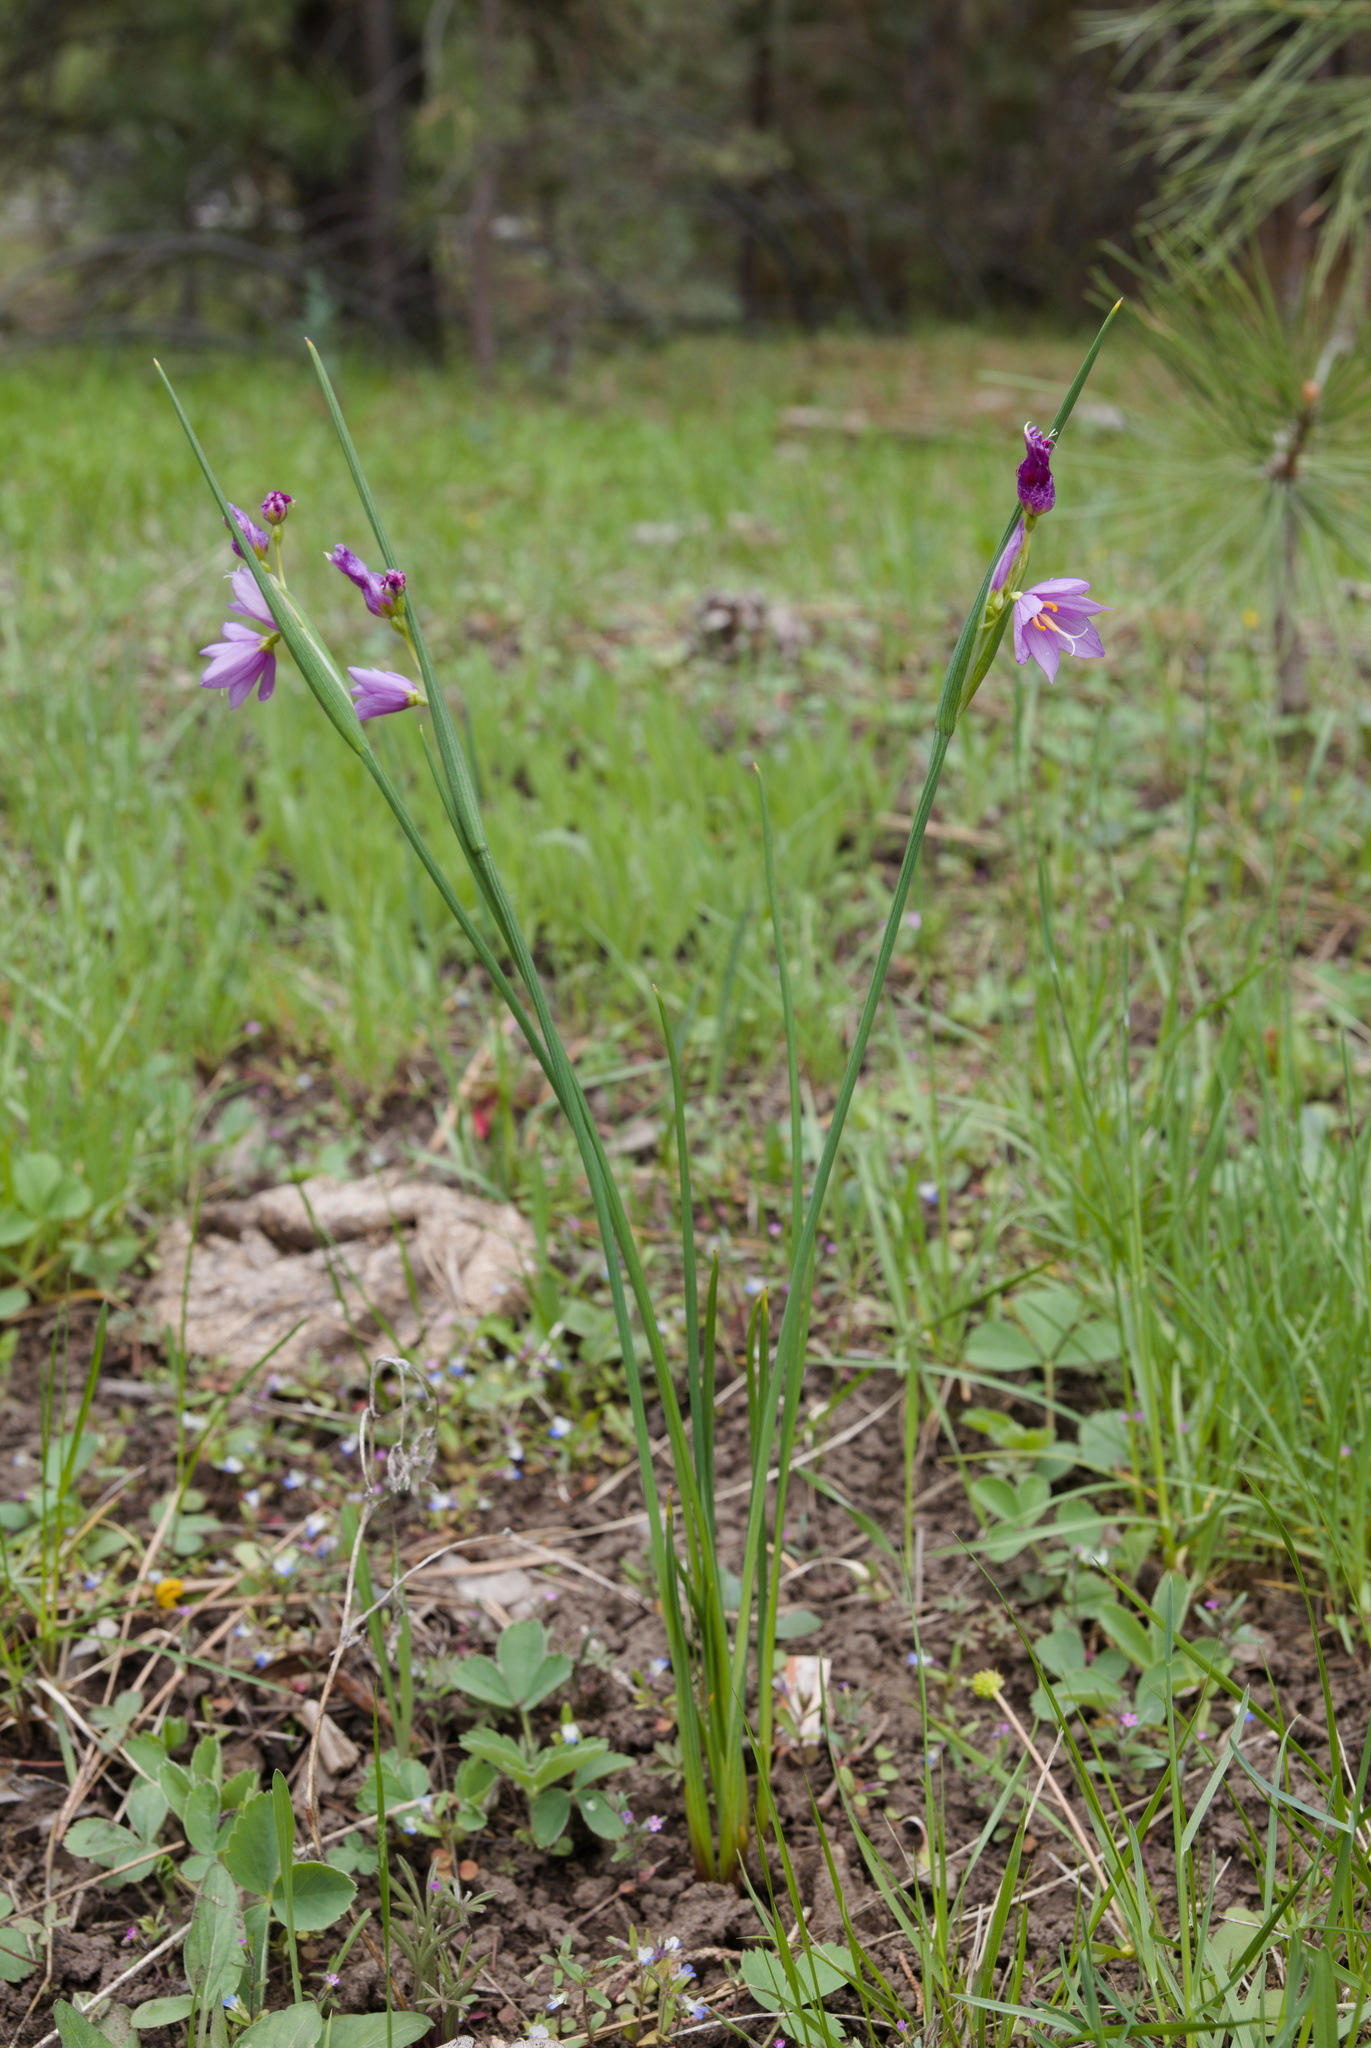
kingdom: Plantae
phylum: Tracheophyta
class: Liliopsida
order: Asparagales
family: Iridaceae
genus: Olsynium
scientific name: Olsynium douglasii
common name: Douglas' grasswidow
